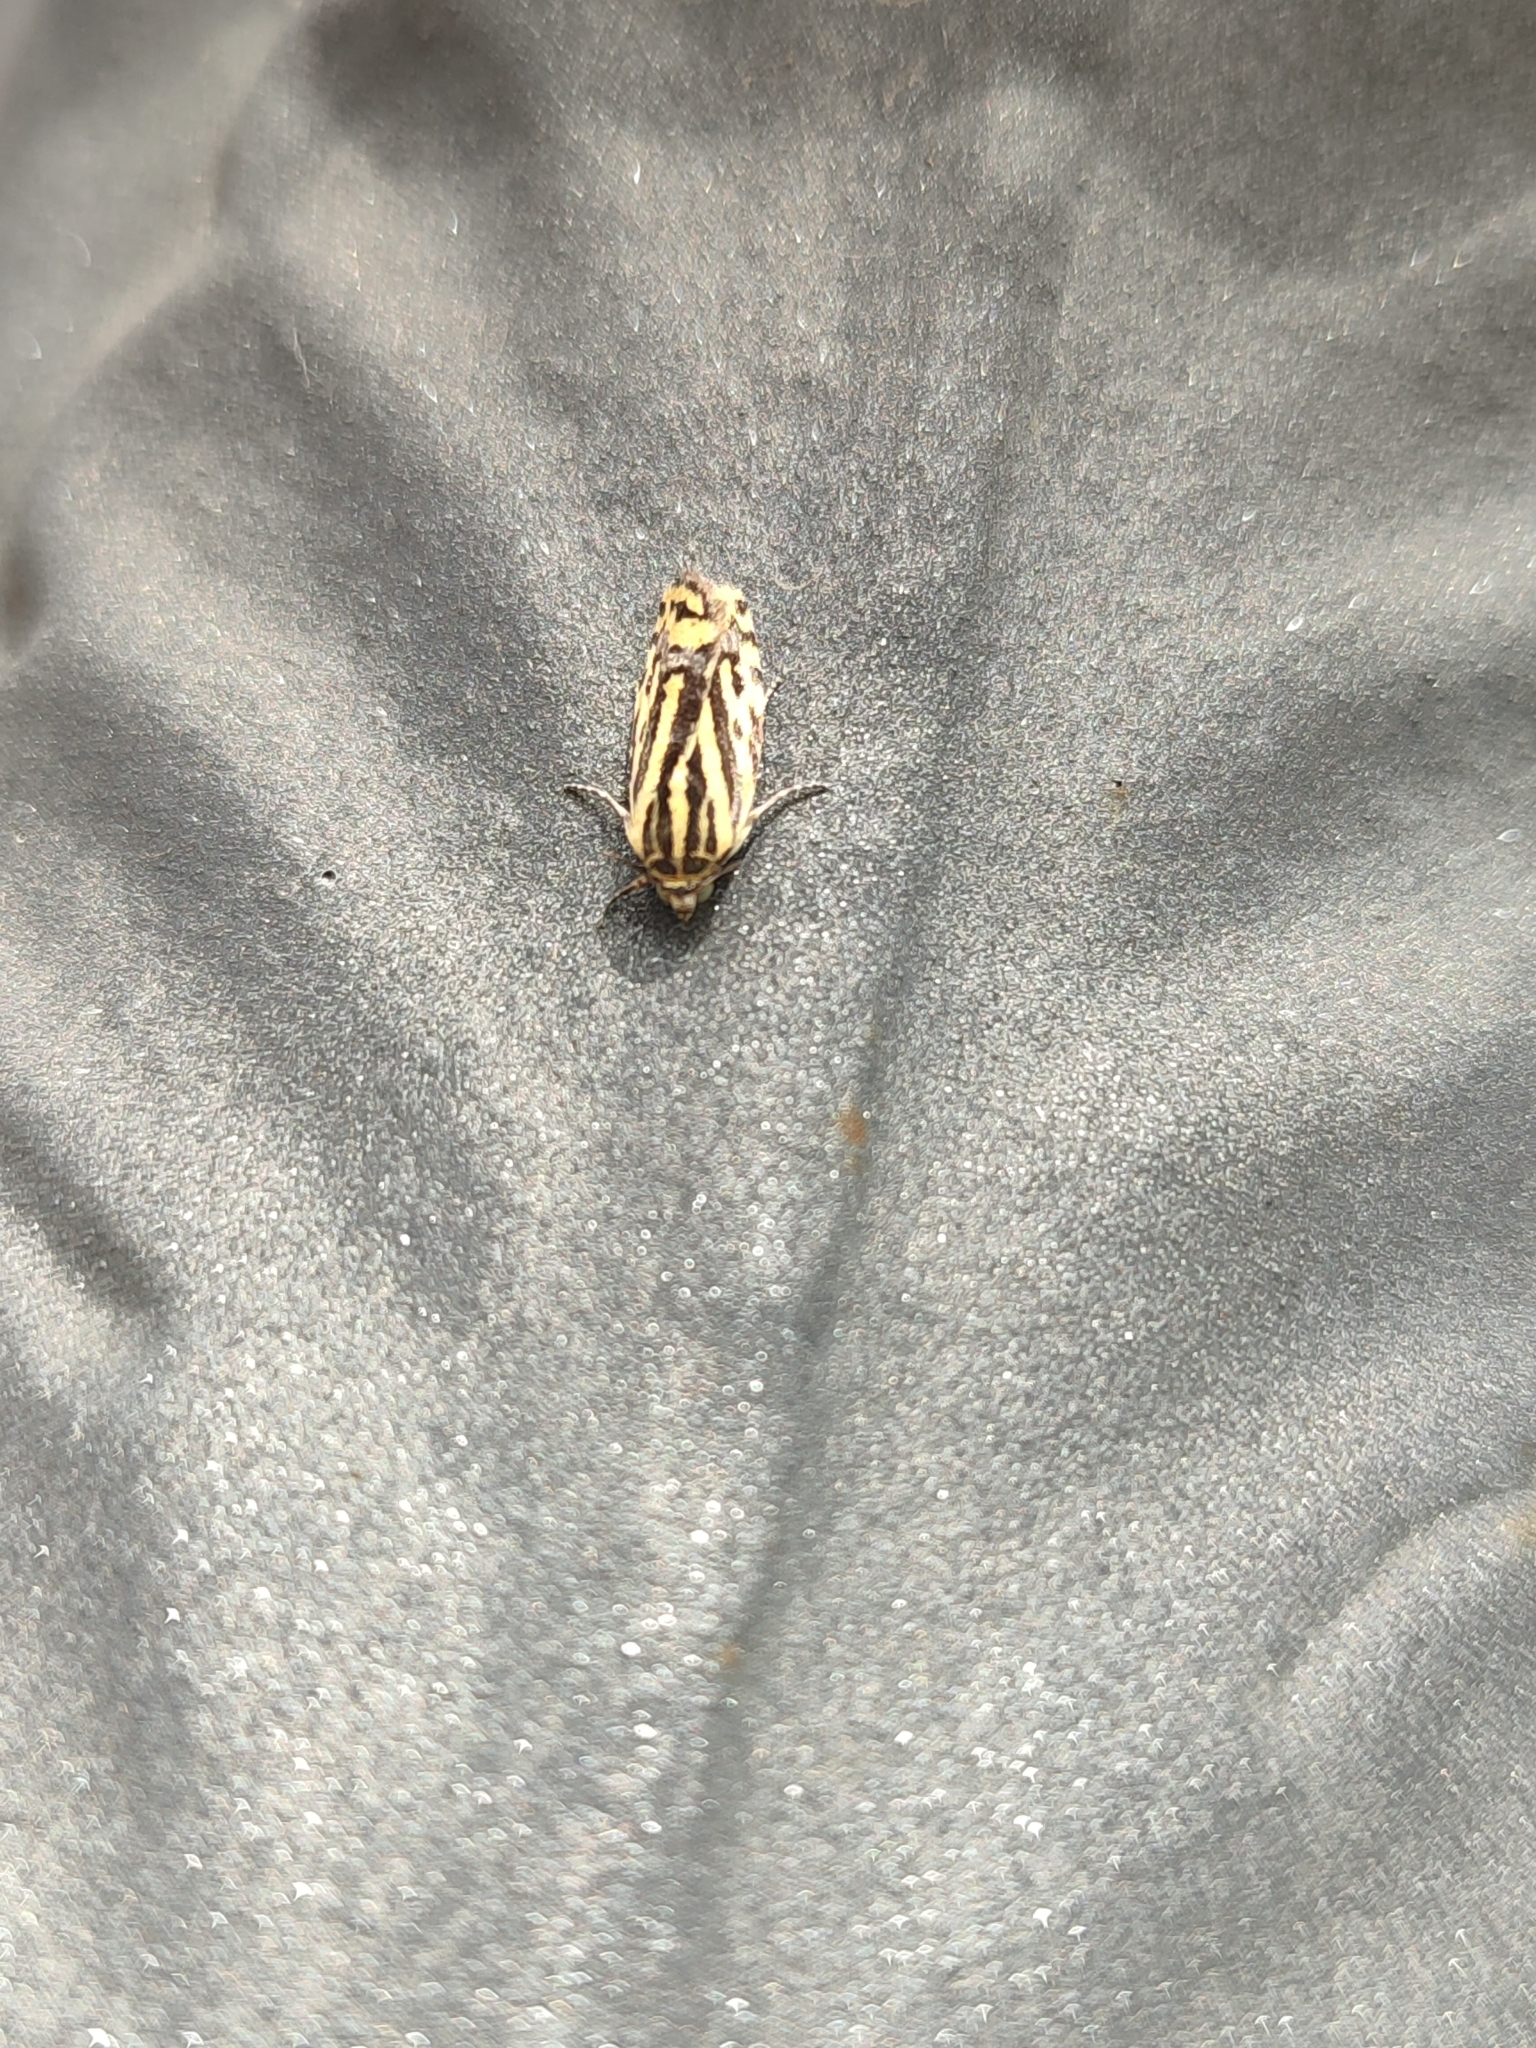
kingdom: Animalia
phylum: Arthropoda
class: Insecta
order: Lepidoptera
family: Noctuidae
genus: Acontia
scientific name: Acontia trabealis
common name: Spotted sulphur
